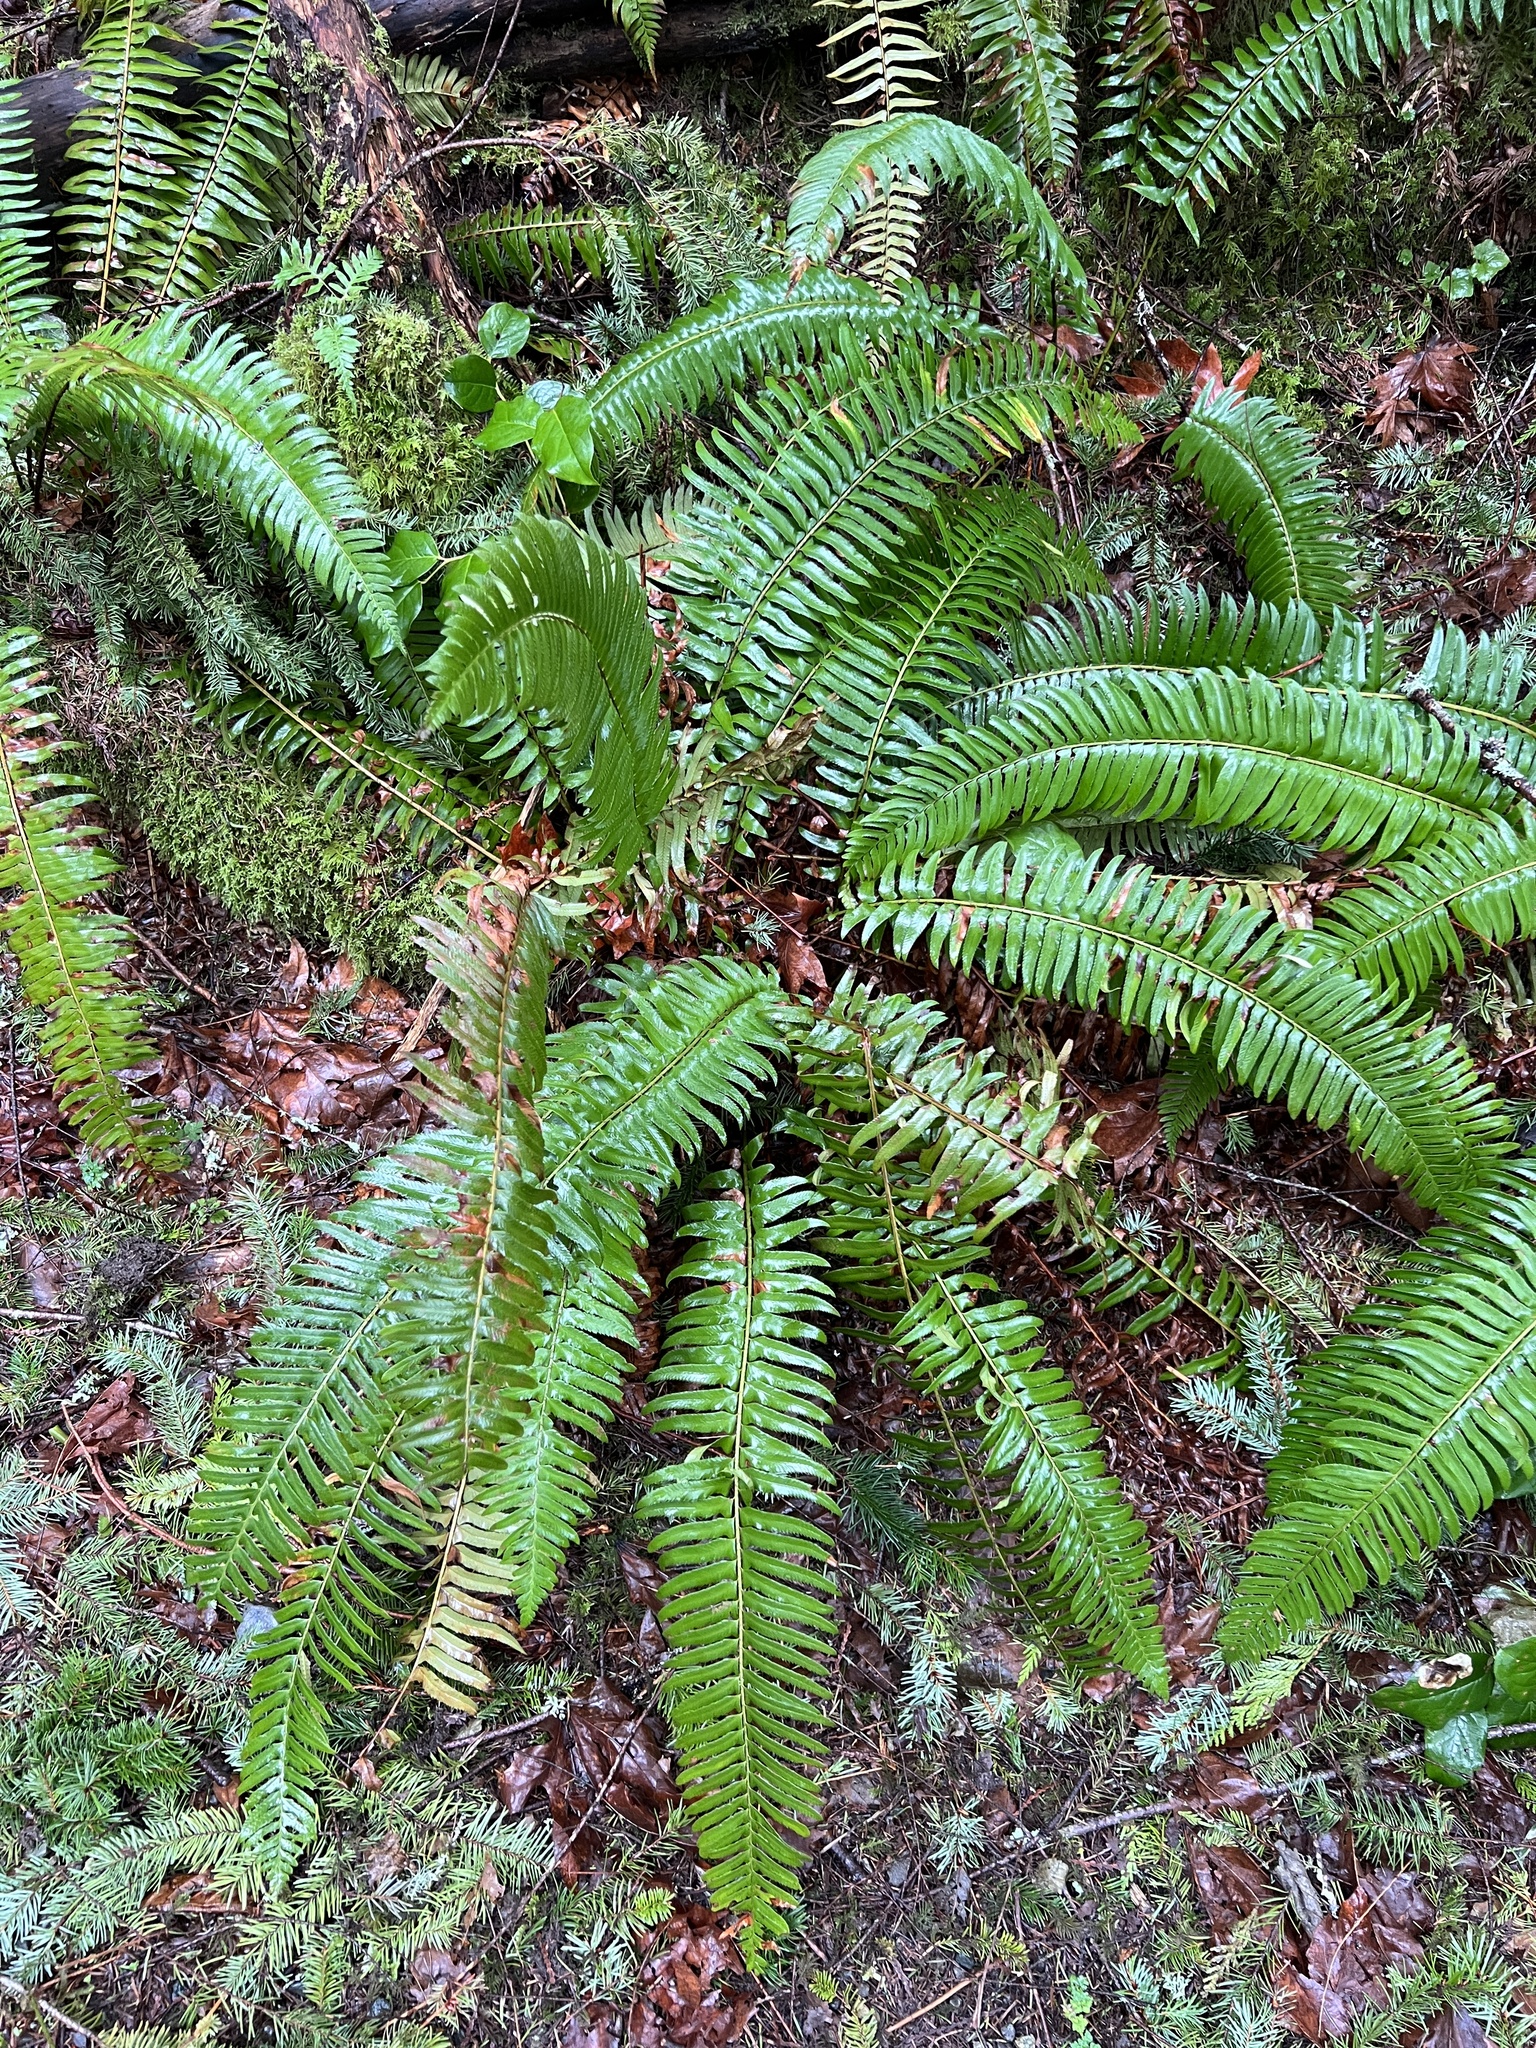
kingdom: Plantae
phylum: Tracheophyta
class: Polypodiopsida
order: Polypodiales
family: Dryopteridaceae
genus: Polystichum
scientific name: Polystichum munitum
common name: Western sword-fern
